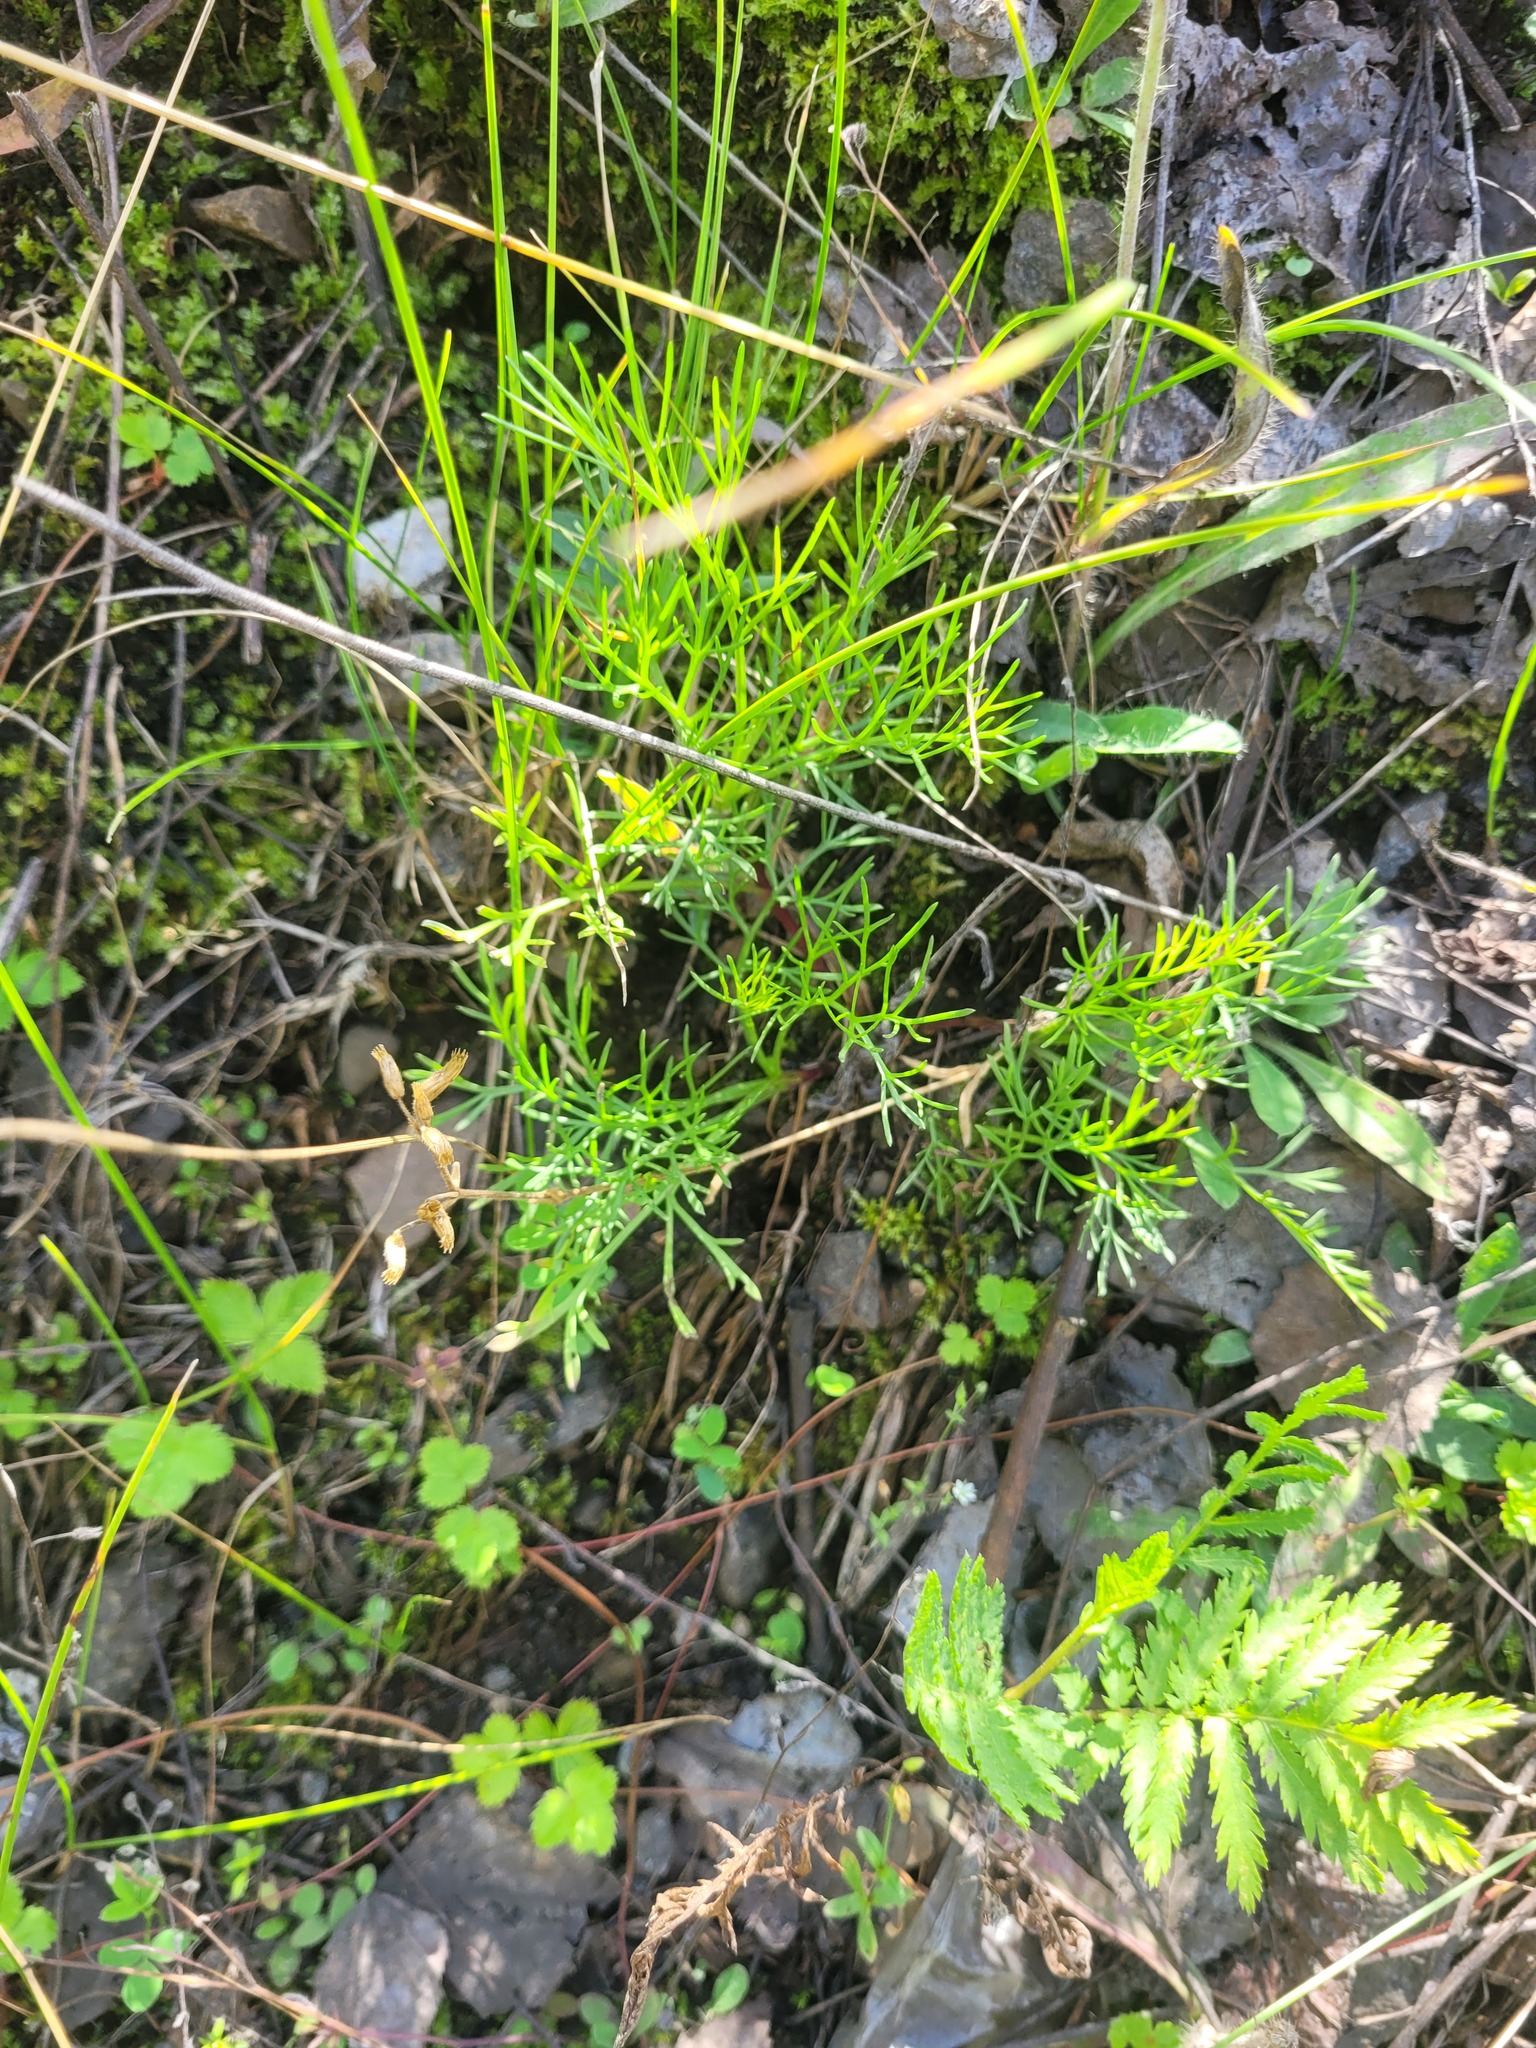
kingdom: Plantae
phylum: Tracheophyta
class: Magnoliopsida
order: Caryophyllales
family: Caryophyllaceae
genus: Cerastium
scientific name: Cerastium holosteoides
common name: Big chickweed
